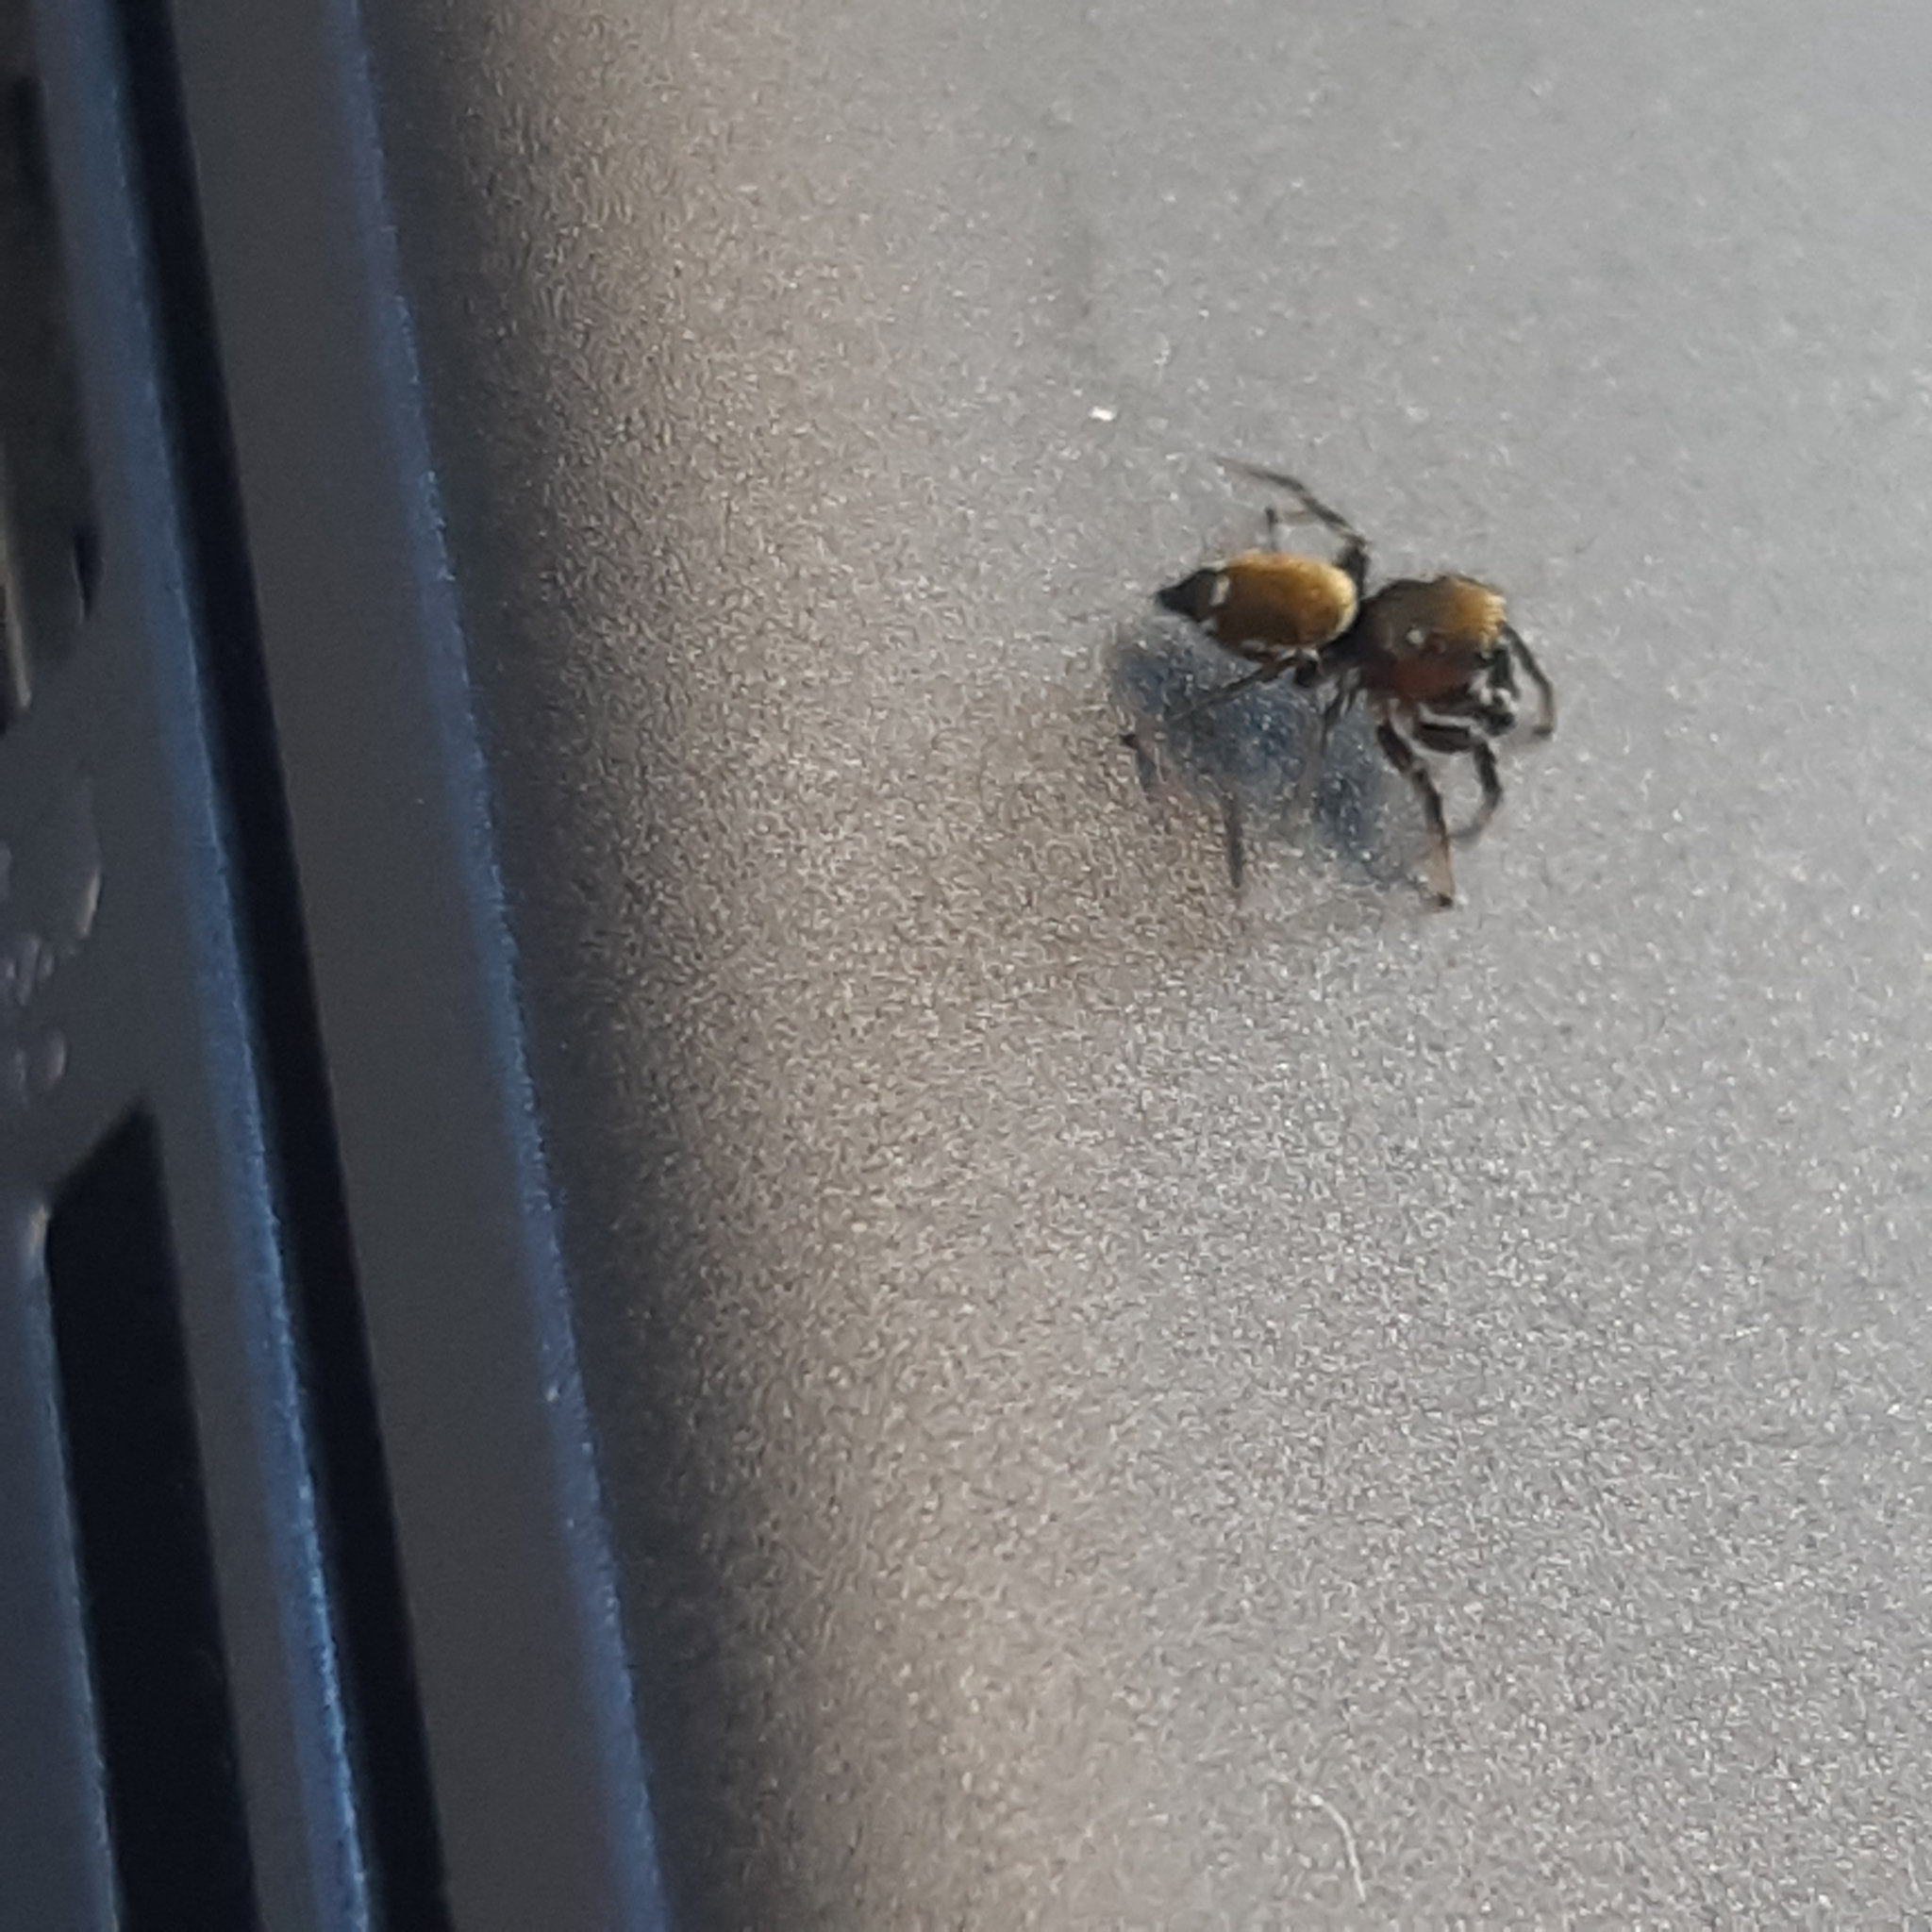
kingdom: Animalia
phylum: Arthropoda
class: Arachnida
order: Araneae
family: Salticidae
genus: Heliophanus
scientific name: Heliophanus tribulosus
